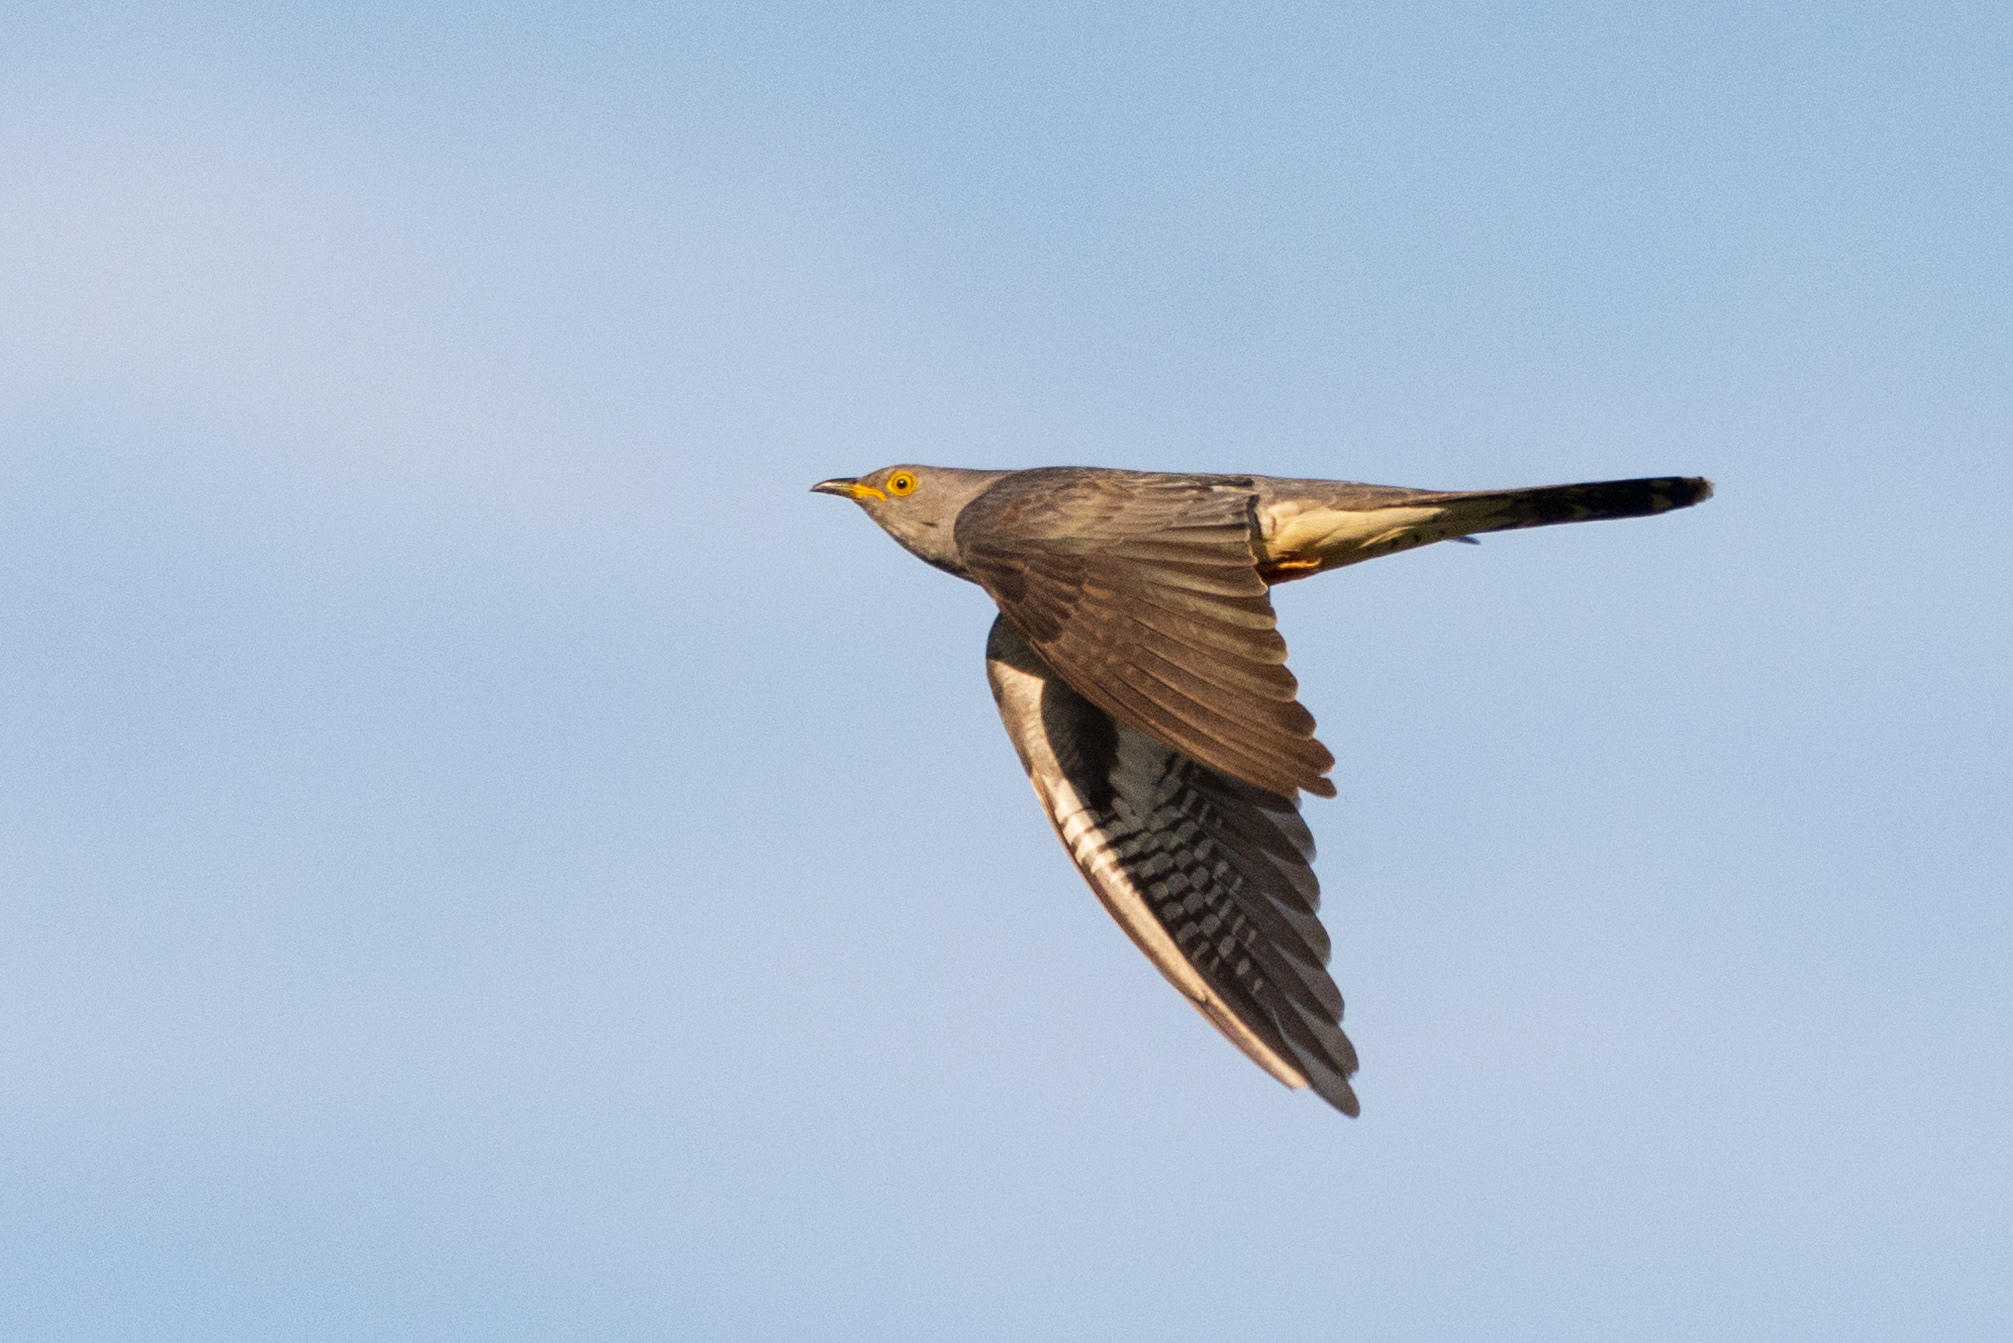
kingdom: Animalia
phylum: Chordata
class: Aves
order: Cuculiformes
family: Cuculidae
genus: Cuculus
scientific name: Cuculus canorus
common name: Common cuckoo
